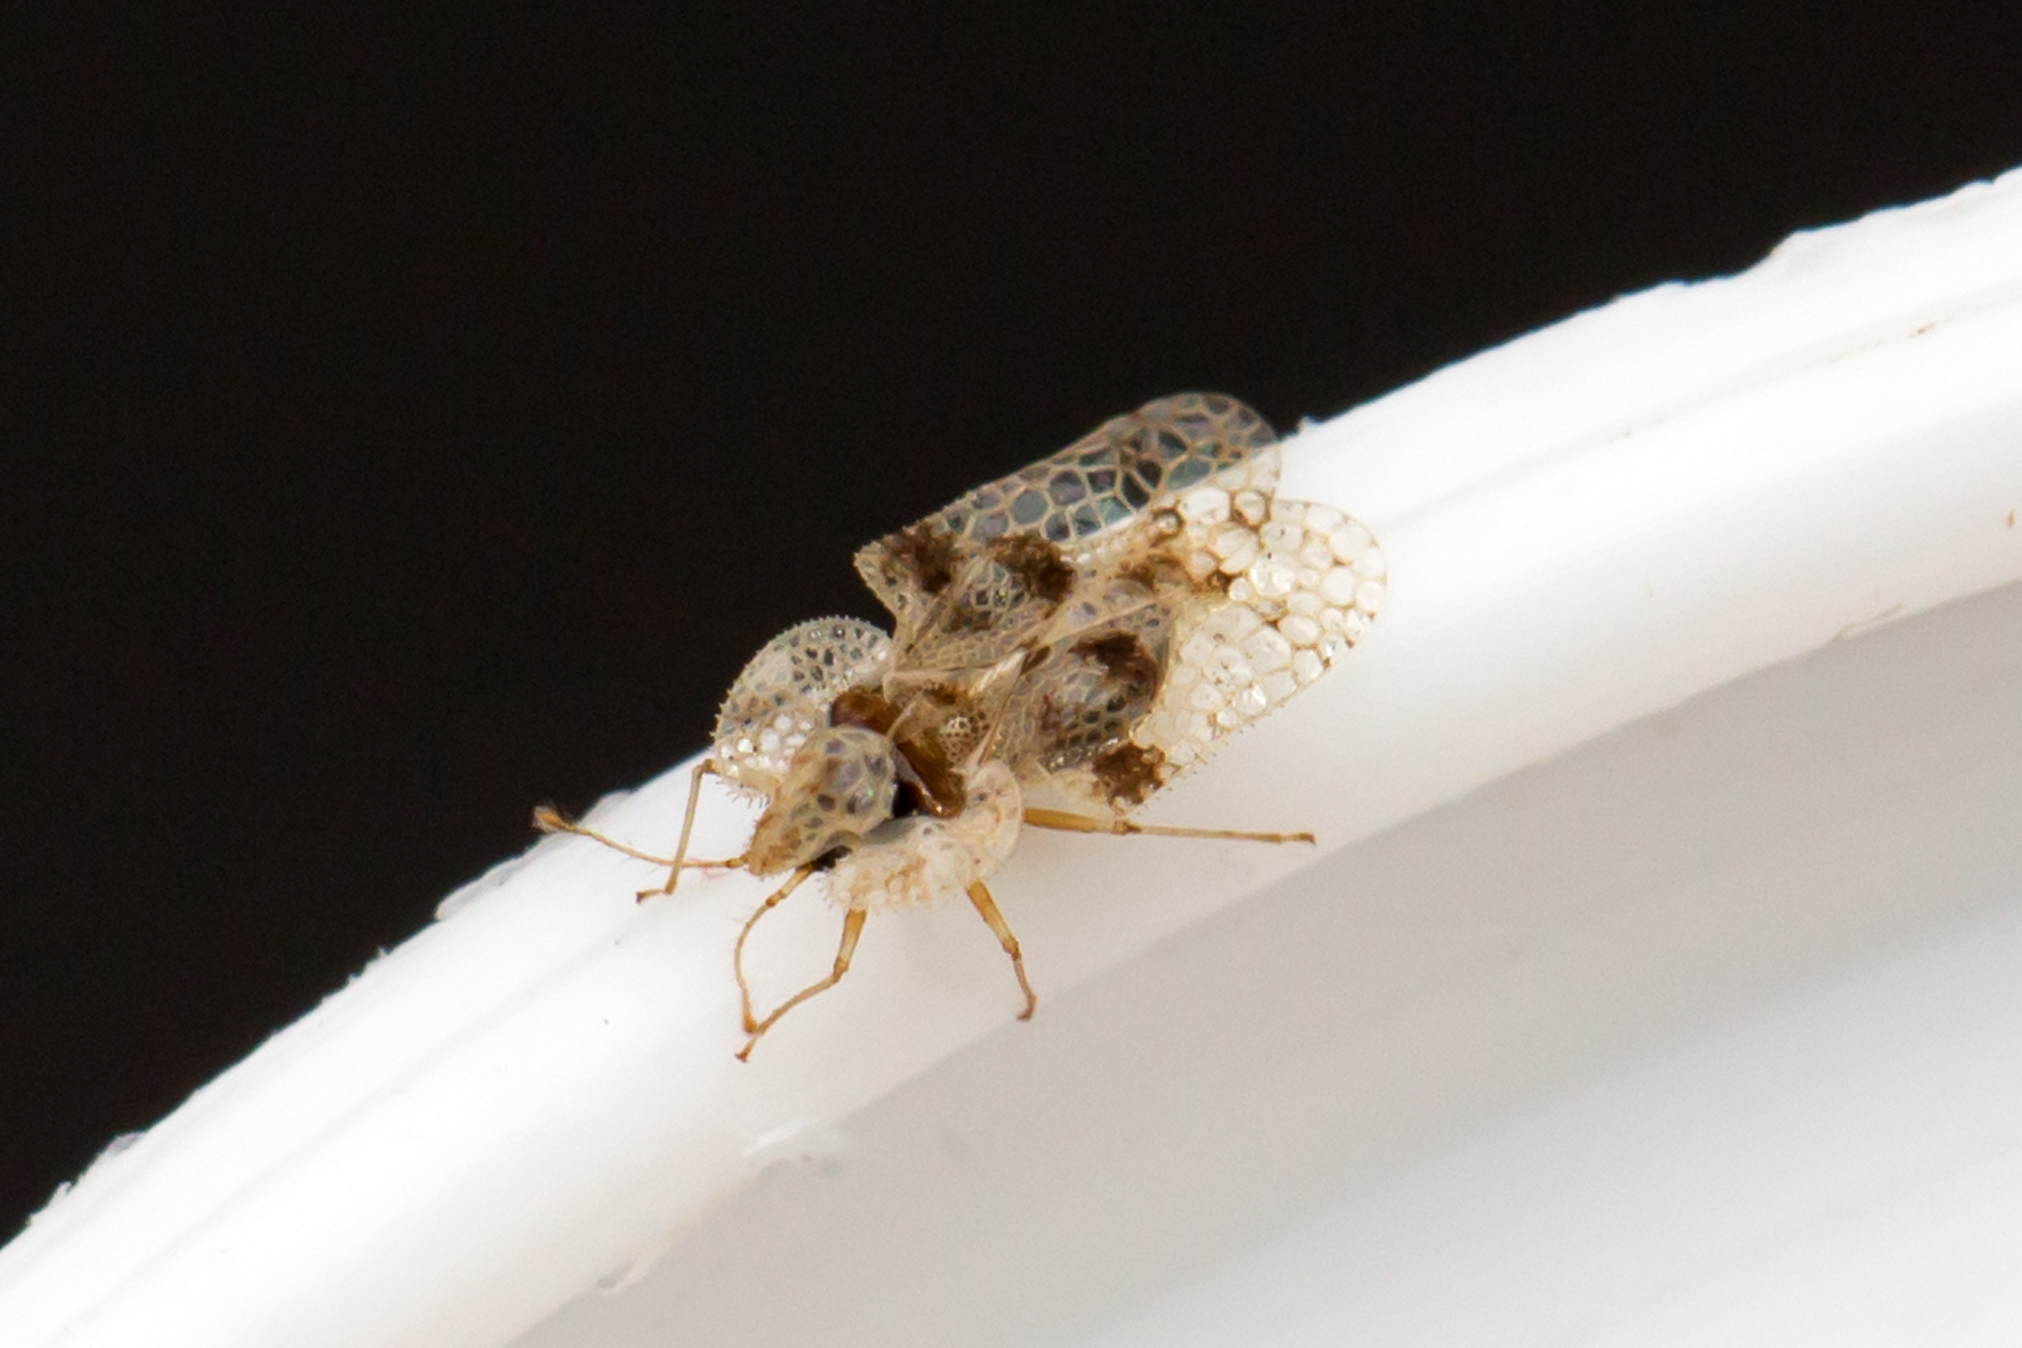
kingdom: Animalia
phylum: Arthropoda
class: Insecta
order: Hemiptera
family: Tingidae
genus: Corythucha
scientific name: Corythucha arcuata
